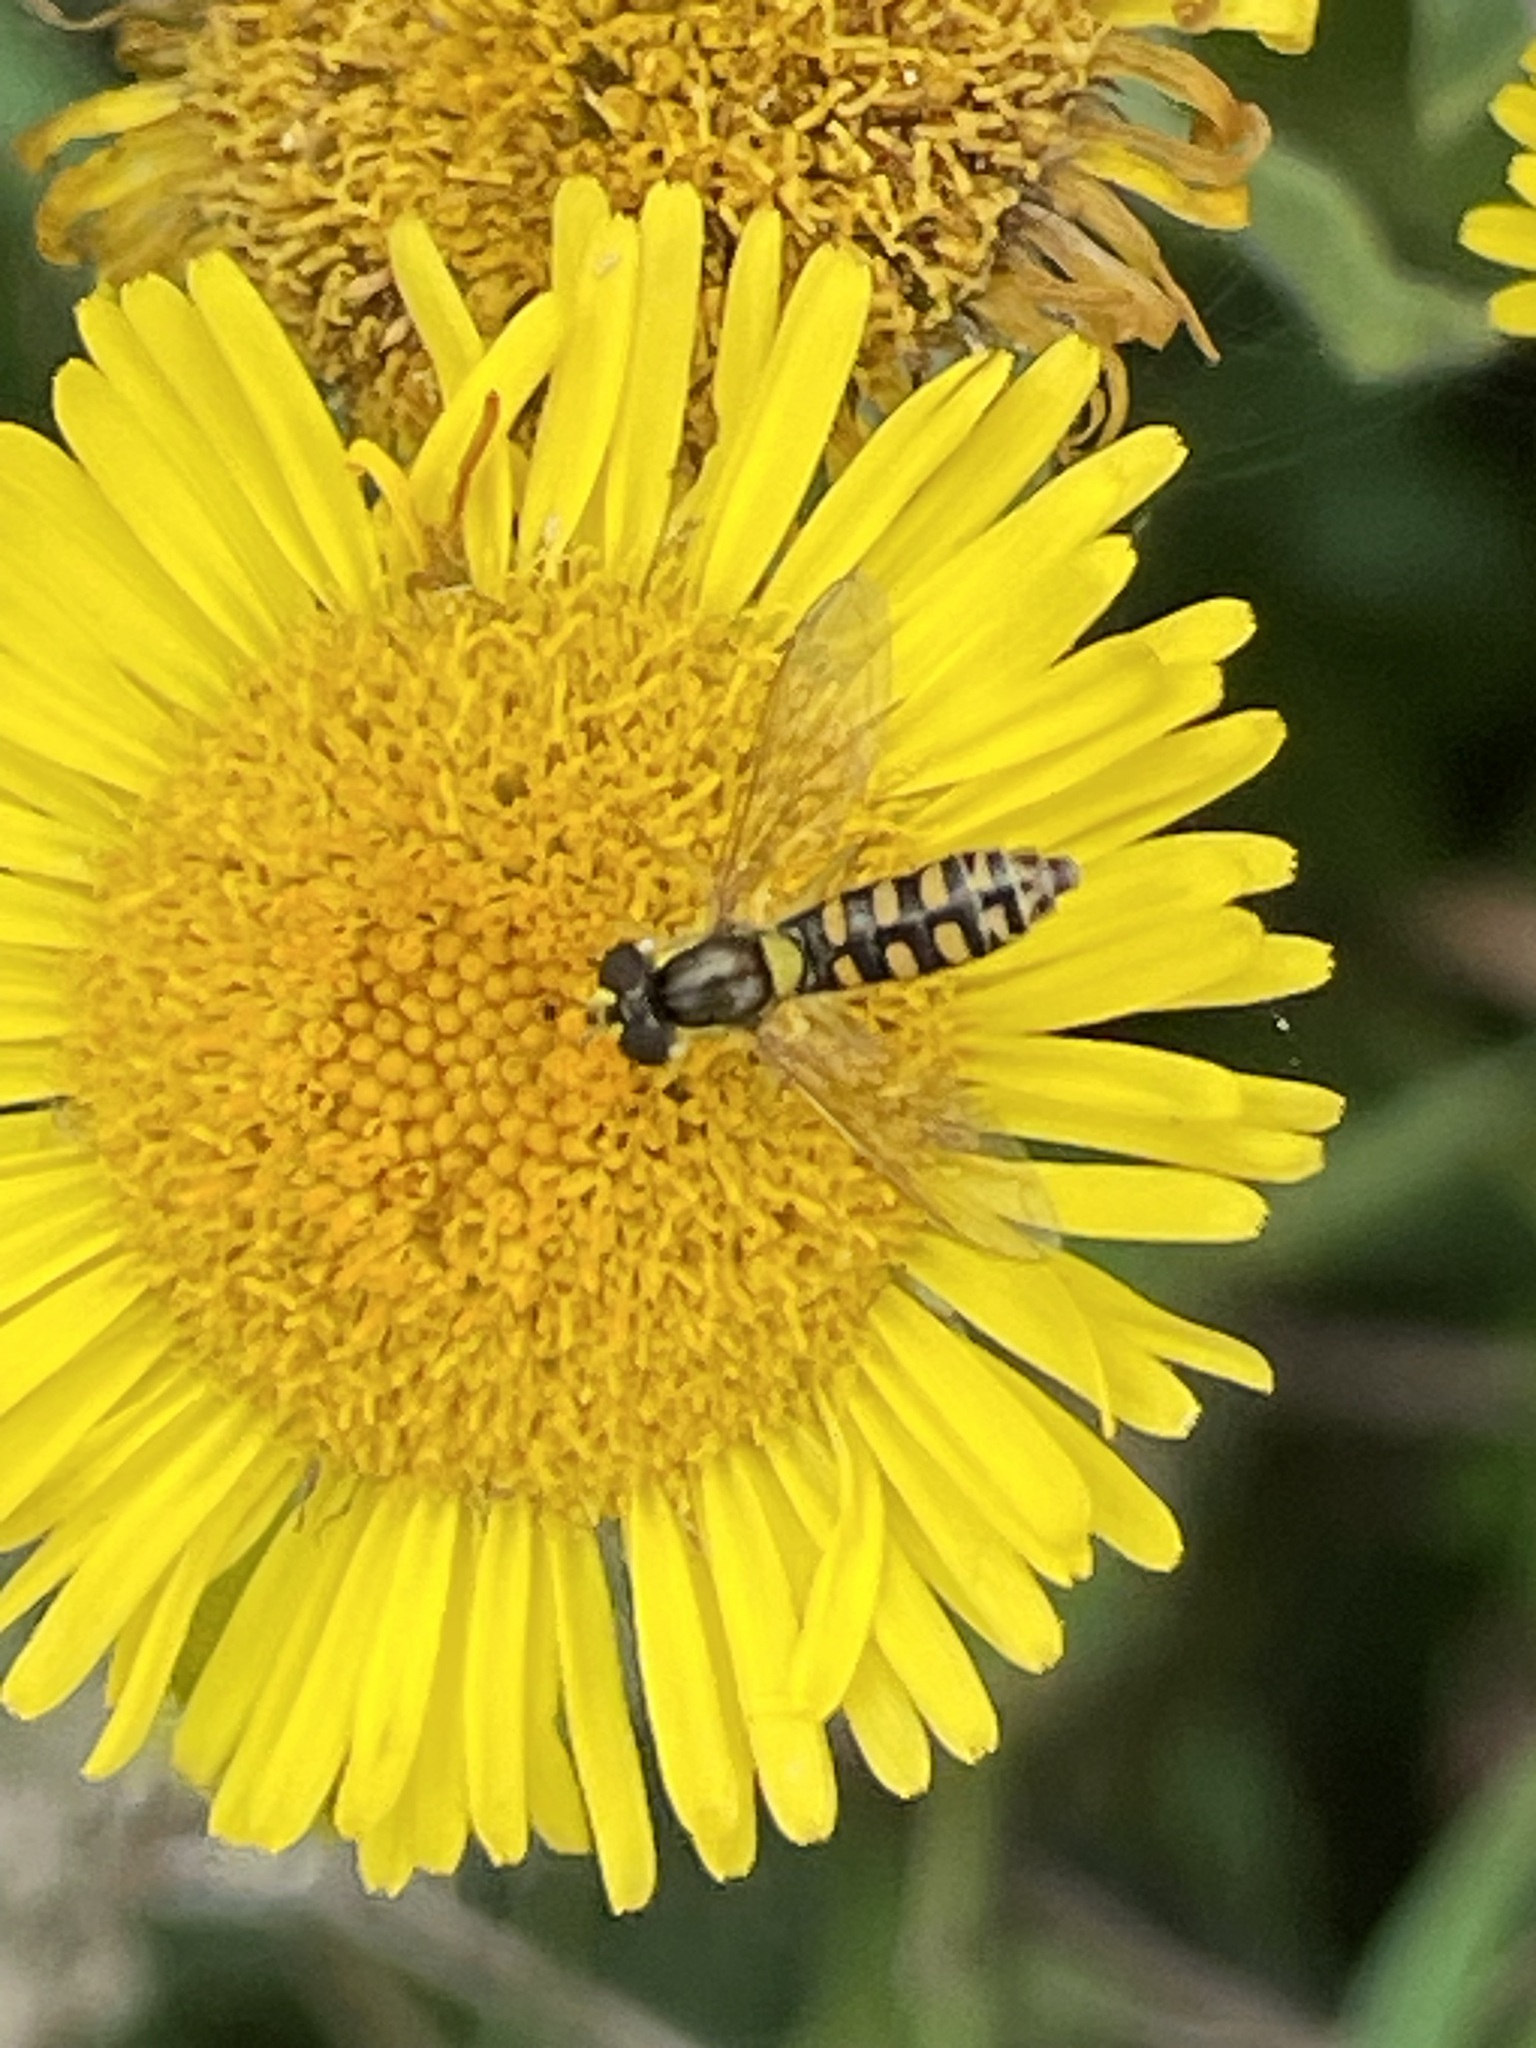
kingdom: Animalia
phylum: Arthropoda
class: Insecta
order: Diptera
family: Syrphidae
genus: Sphaerophoria
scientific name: Sphaerophoria
